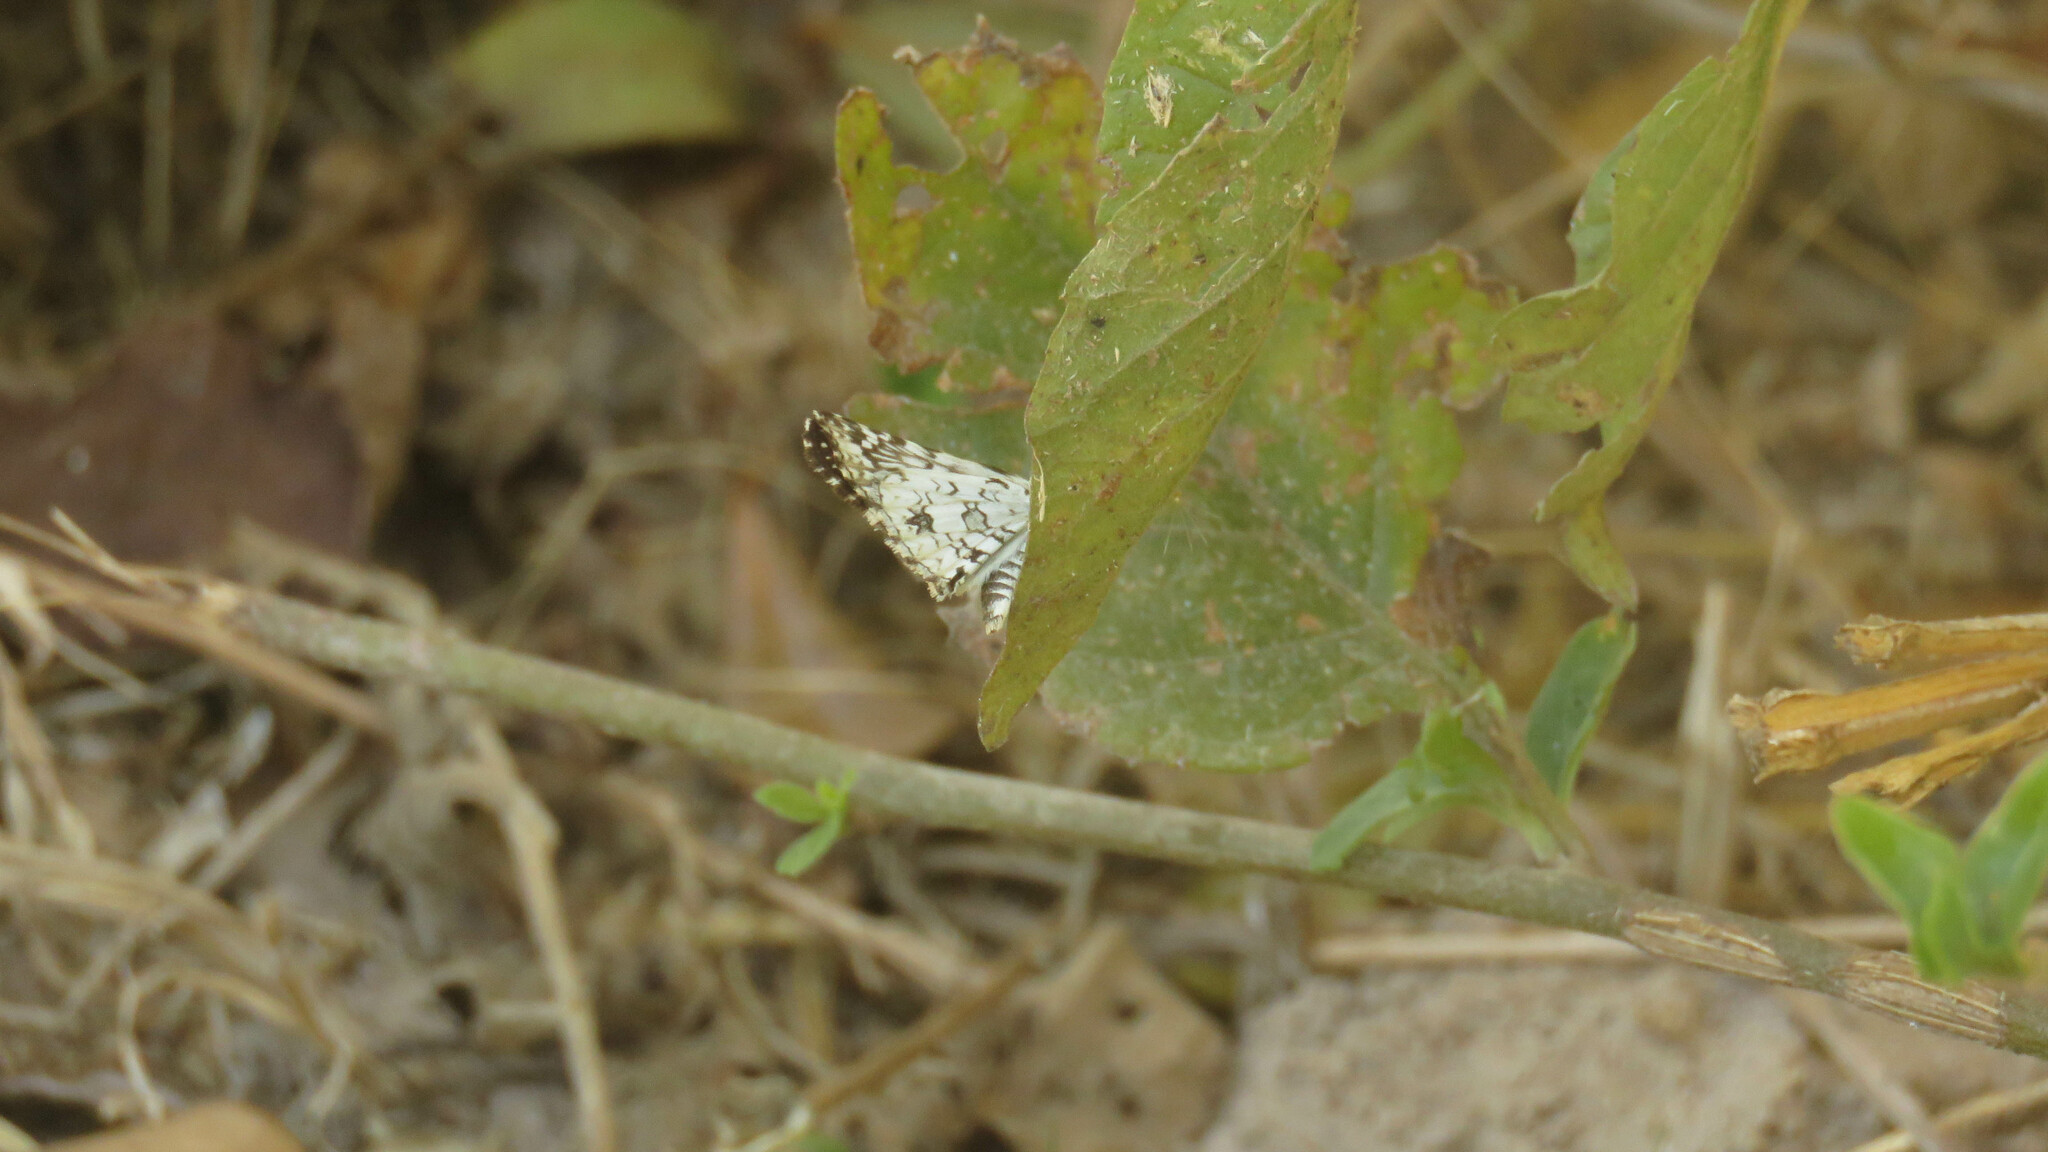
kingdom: Animalia
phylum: Arthropoda
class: Insecta
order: Lepidoptera
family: Hesperiidae
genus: Pyrgus
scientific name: Pyrgus oileus
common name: Tropical checkered-skipper
